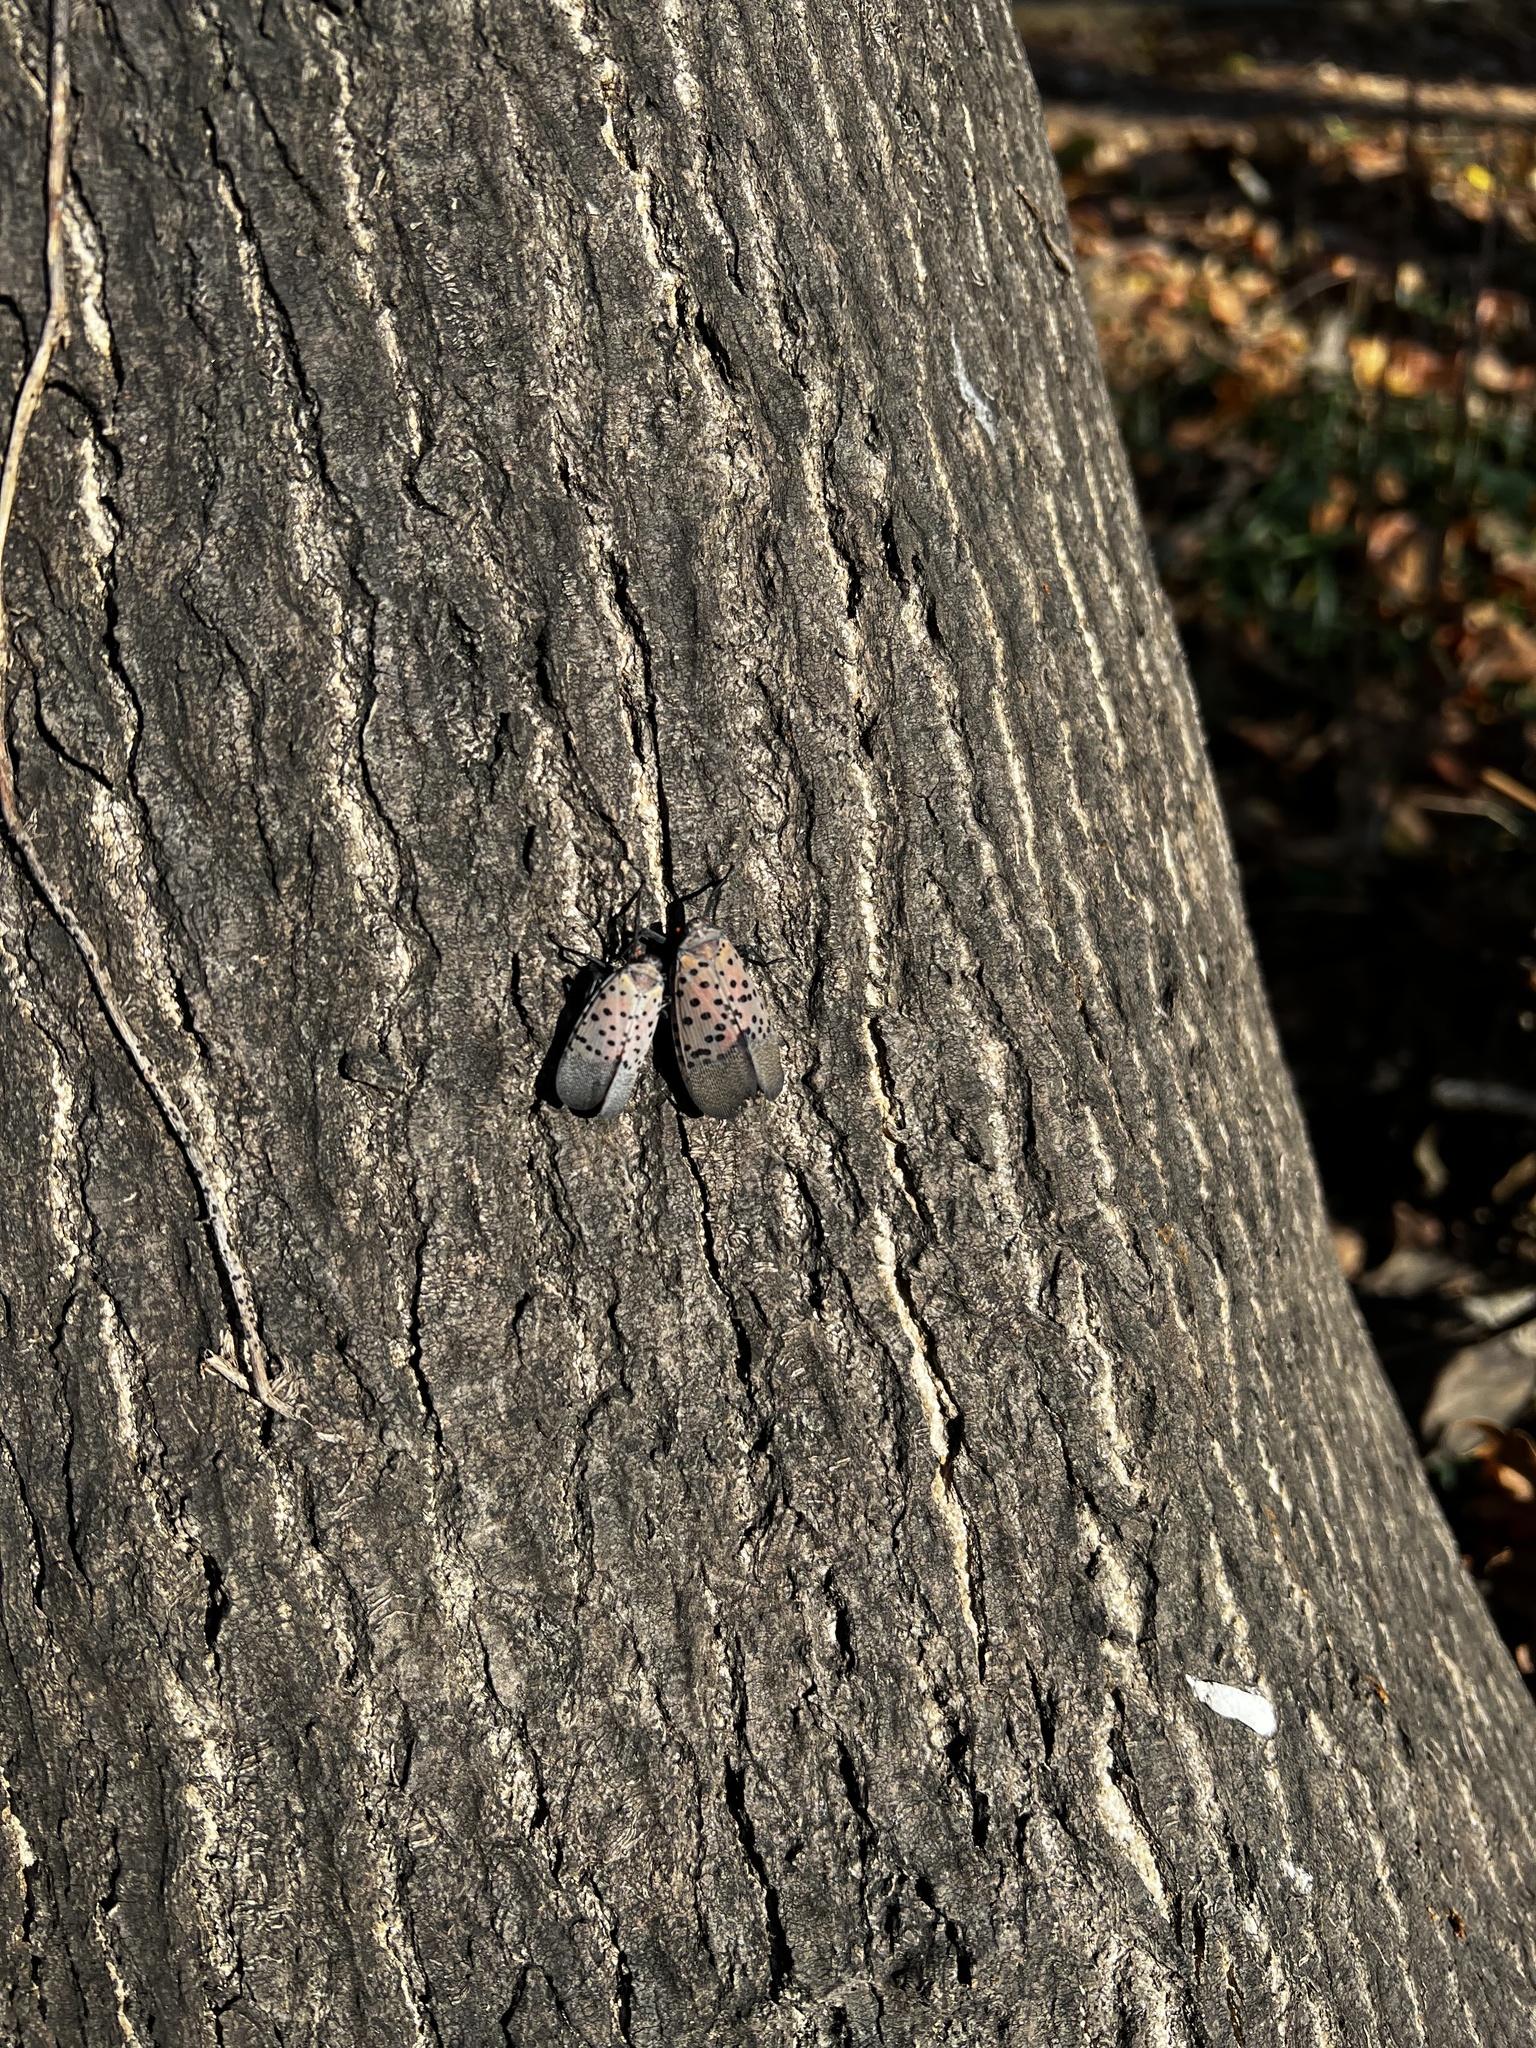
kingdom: Animalia
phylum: Arthropoda
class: Insecta
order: Hemiptera
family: Fulgoridae
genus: Lycorma
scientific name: Lycorma delicatula
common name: Spotted lanternfly
